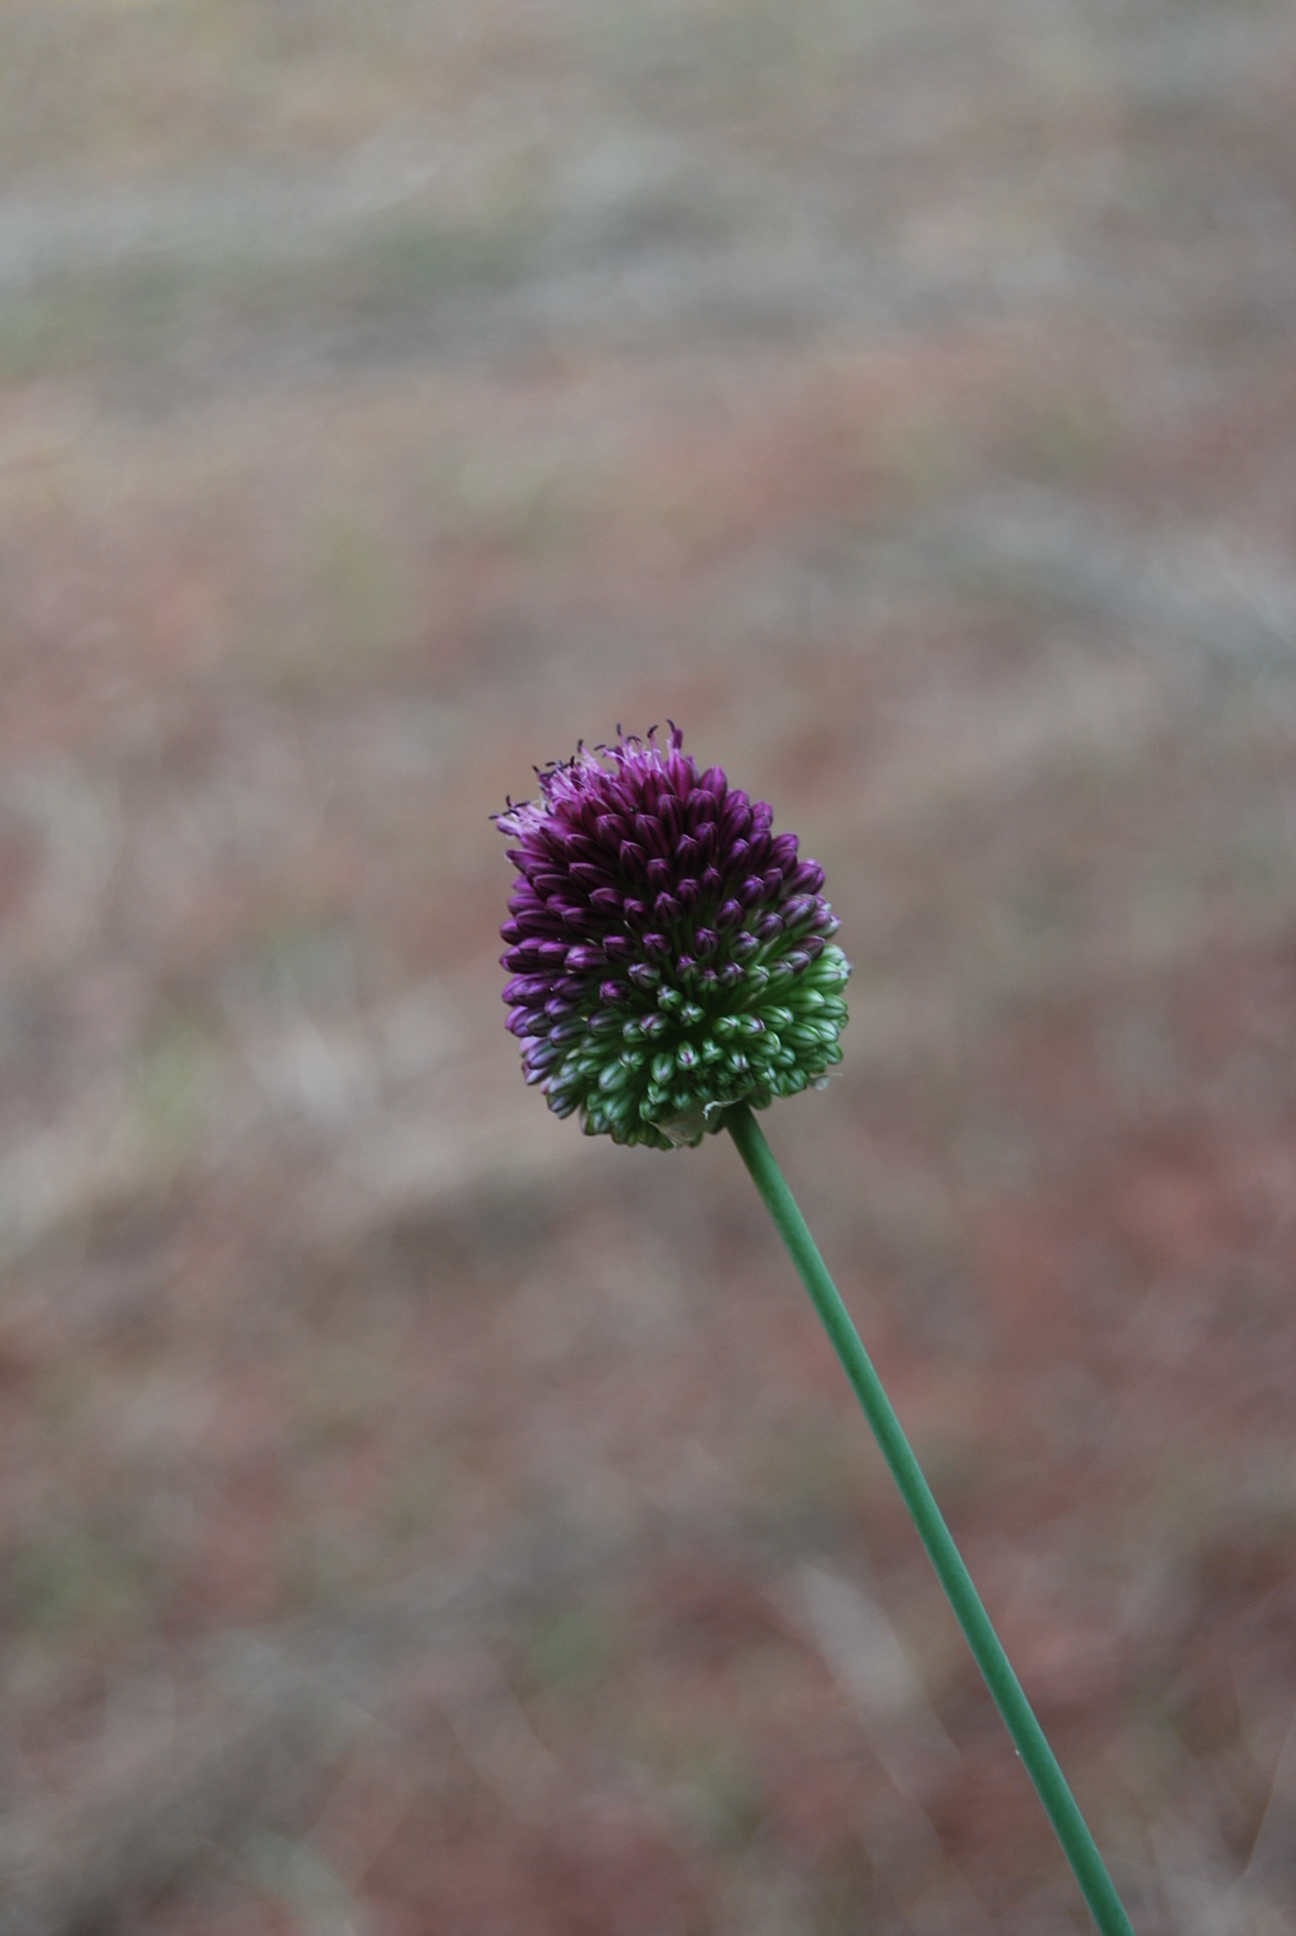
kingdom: Plantae
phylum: Tracheophyta
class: Liliopsida
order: Asparagales
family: Amaryllidaceae
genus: Allium
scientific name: Allium sphaerocephalon
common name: Round-headed leek
